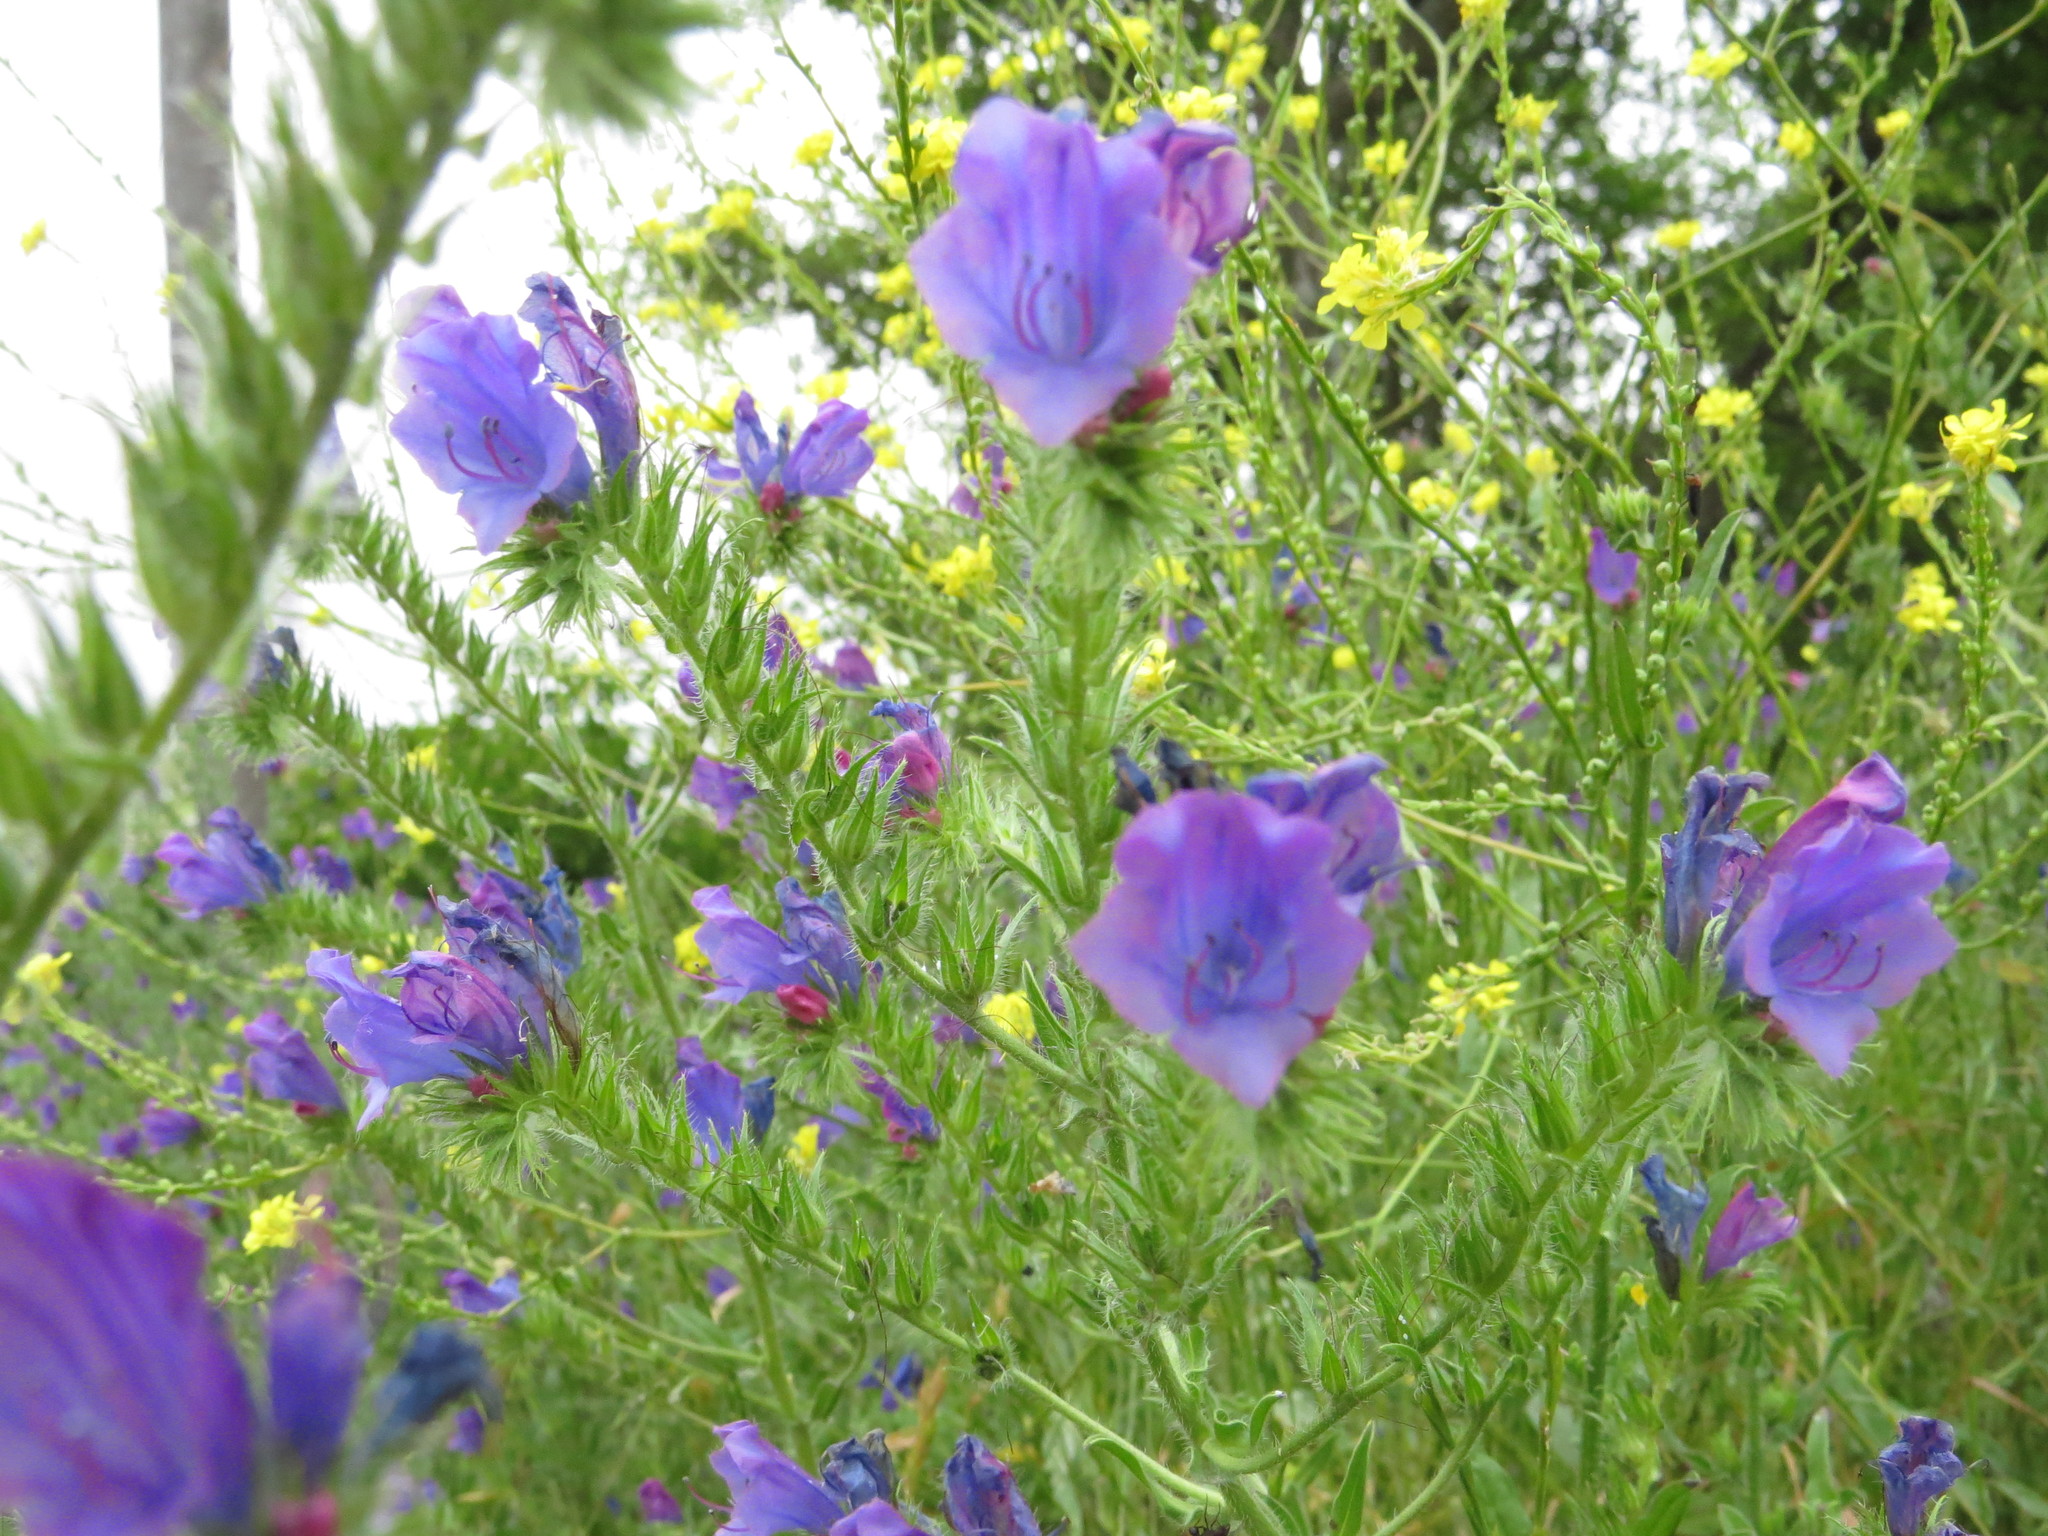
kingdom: Plantae
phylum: Tracheophyta
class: Magnoliopsida
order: Boraginales
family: Boraginaceae
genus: Echium
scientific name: Echium plantagineum
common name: Purple viper's-bugloss
